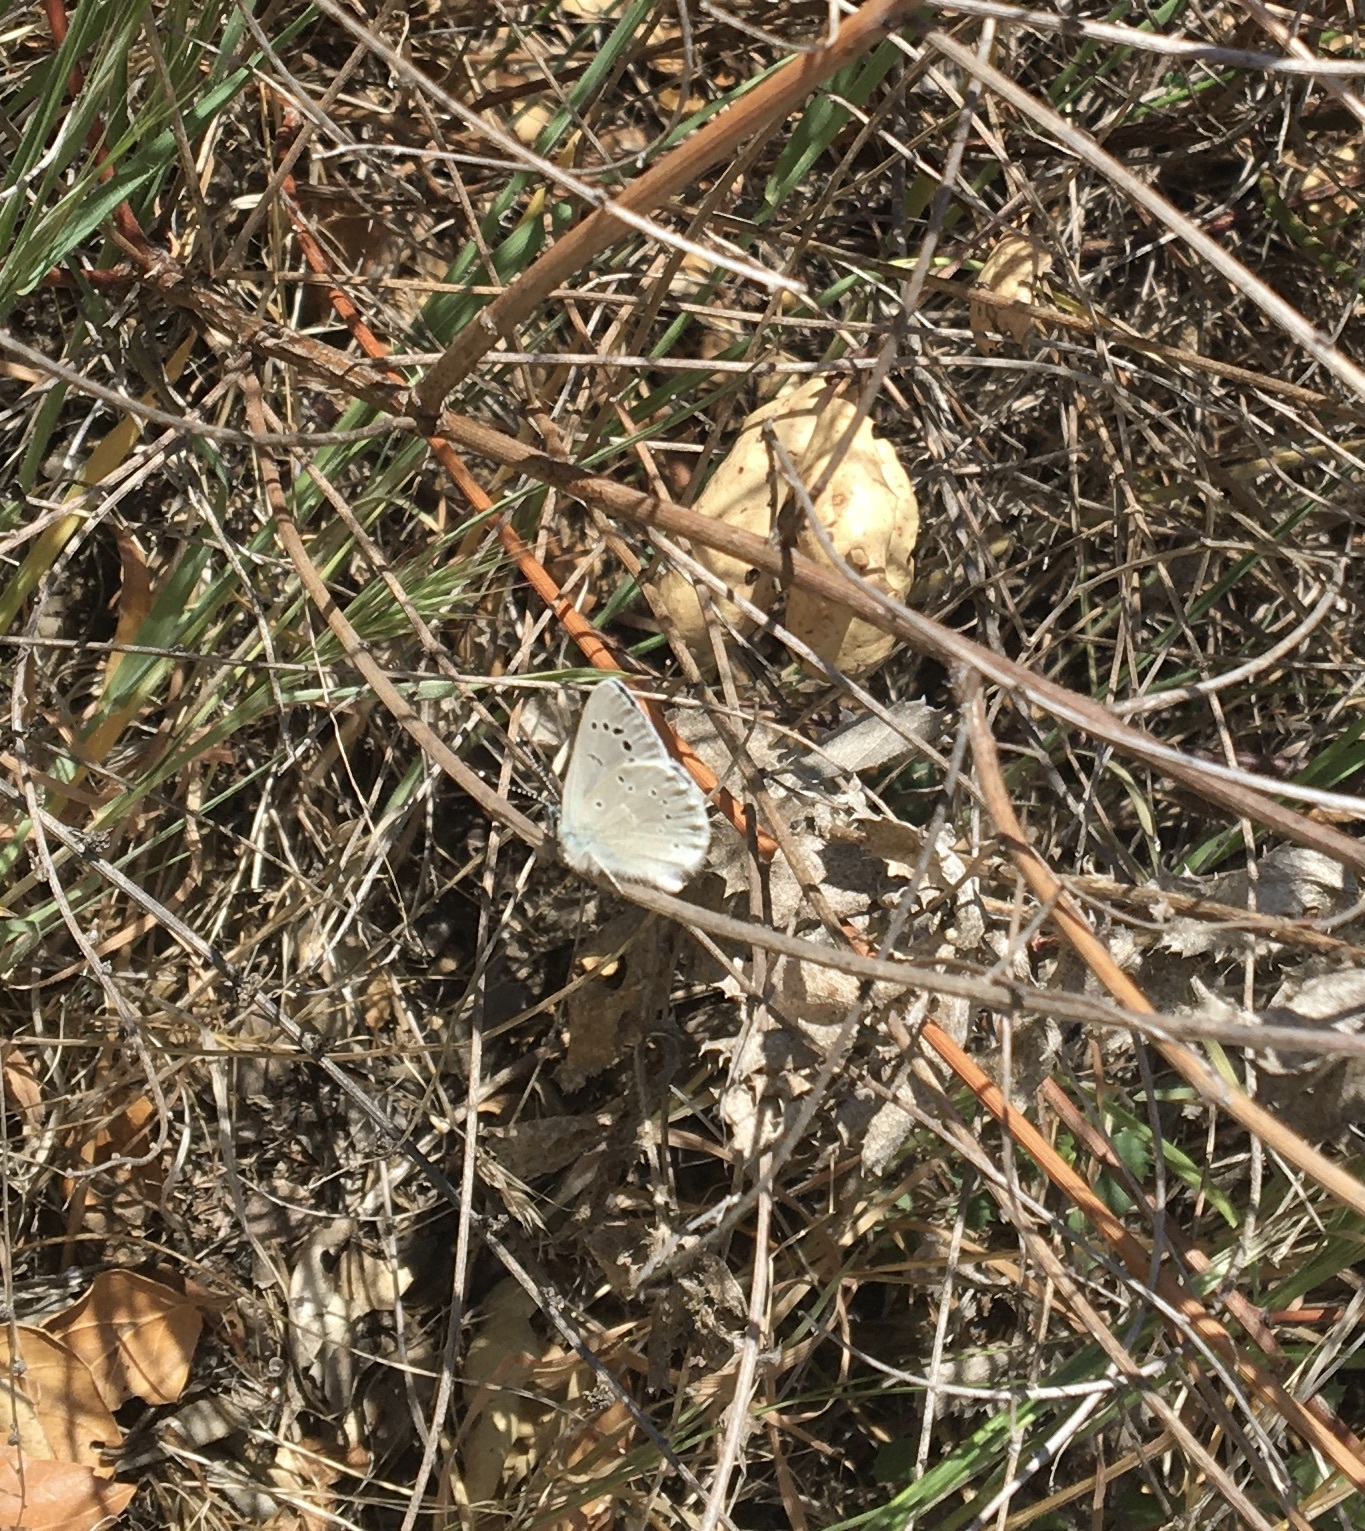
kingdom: Animalia
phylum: Arthropoda
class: Insecta
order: Lepidoptera
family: Lycaenidae
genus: Glaucopsyche
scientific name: Glaucopsyche lygdamus
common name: Silvery blue
